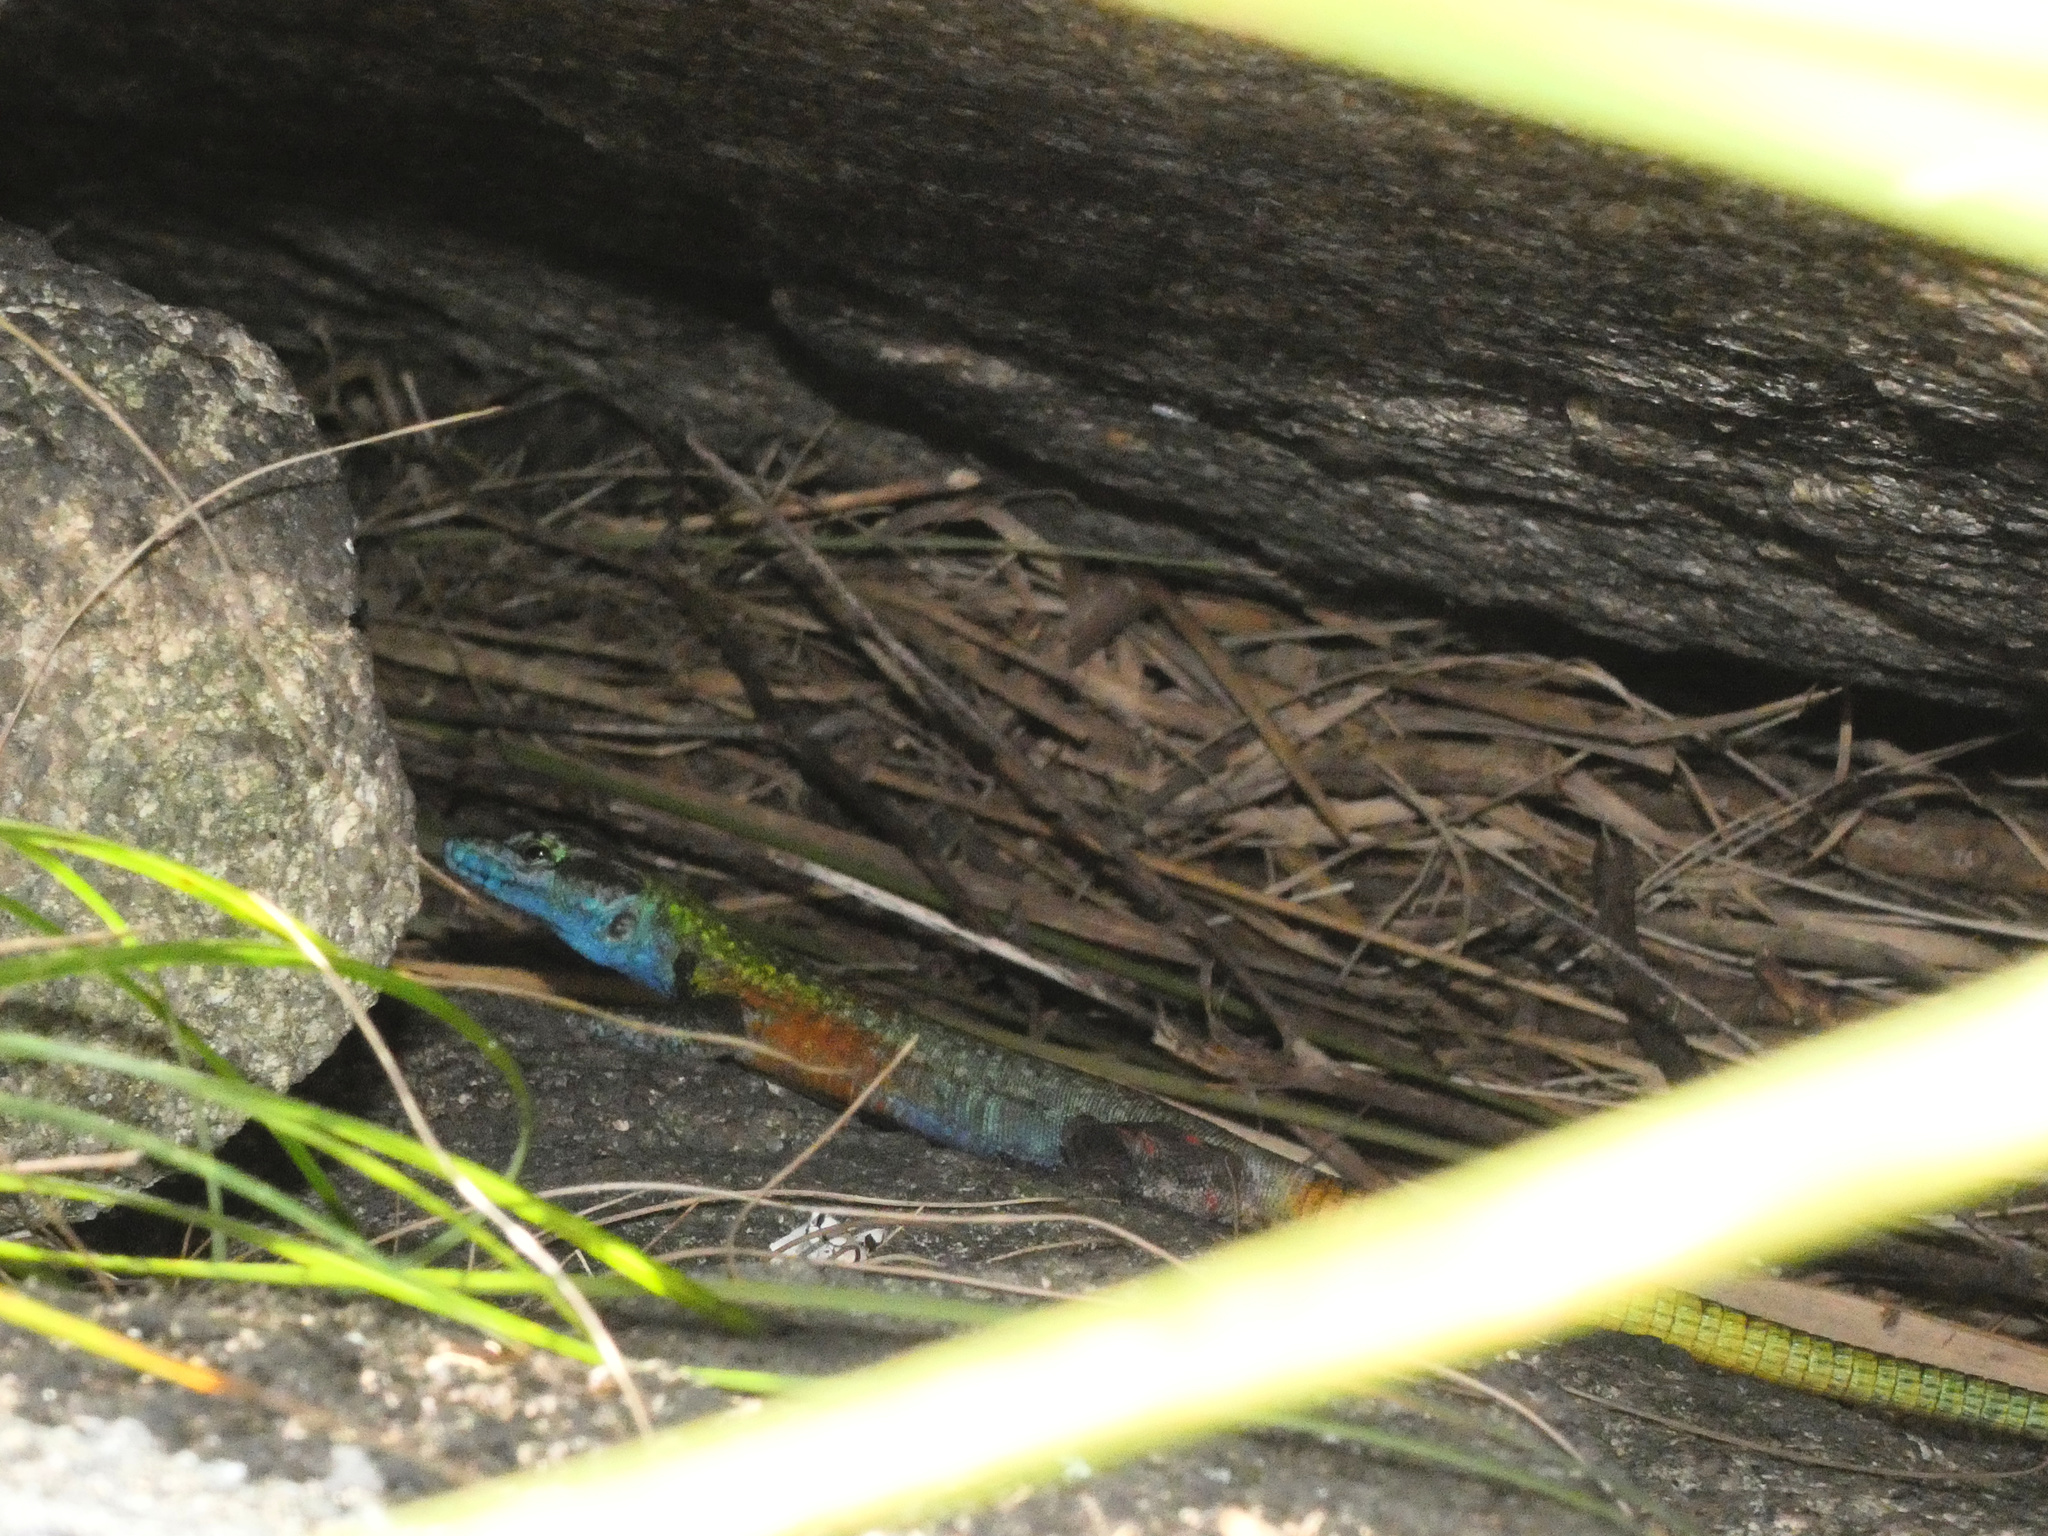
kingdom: Animalia
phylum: Chordata
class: Squamata
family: Cordylidae
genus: Platysaurus
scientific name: Platysaurus intermedius
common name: Common flat lizard
